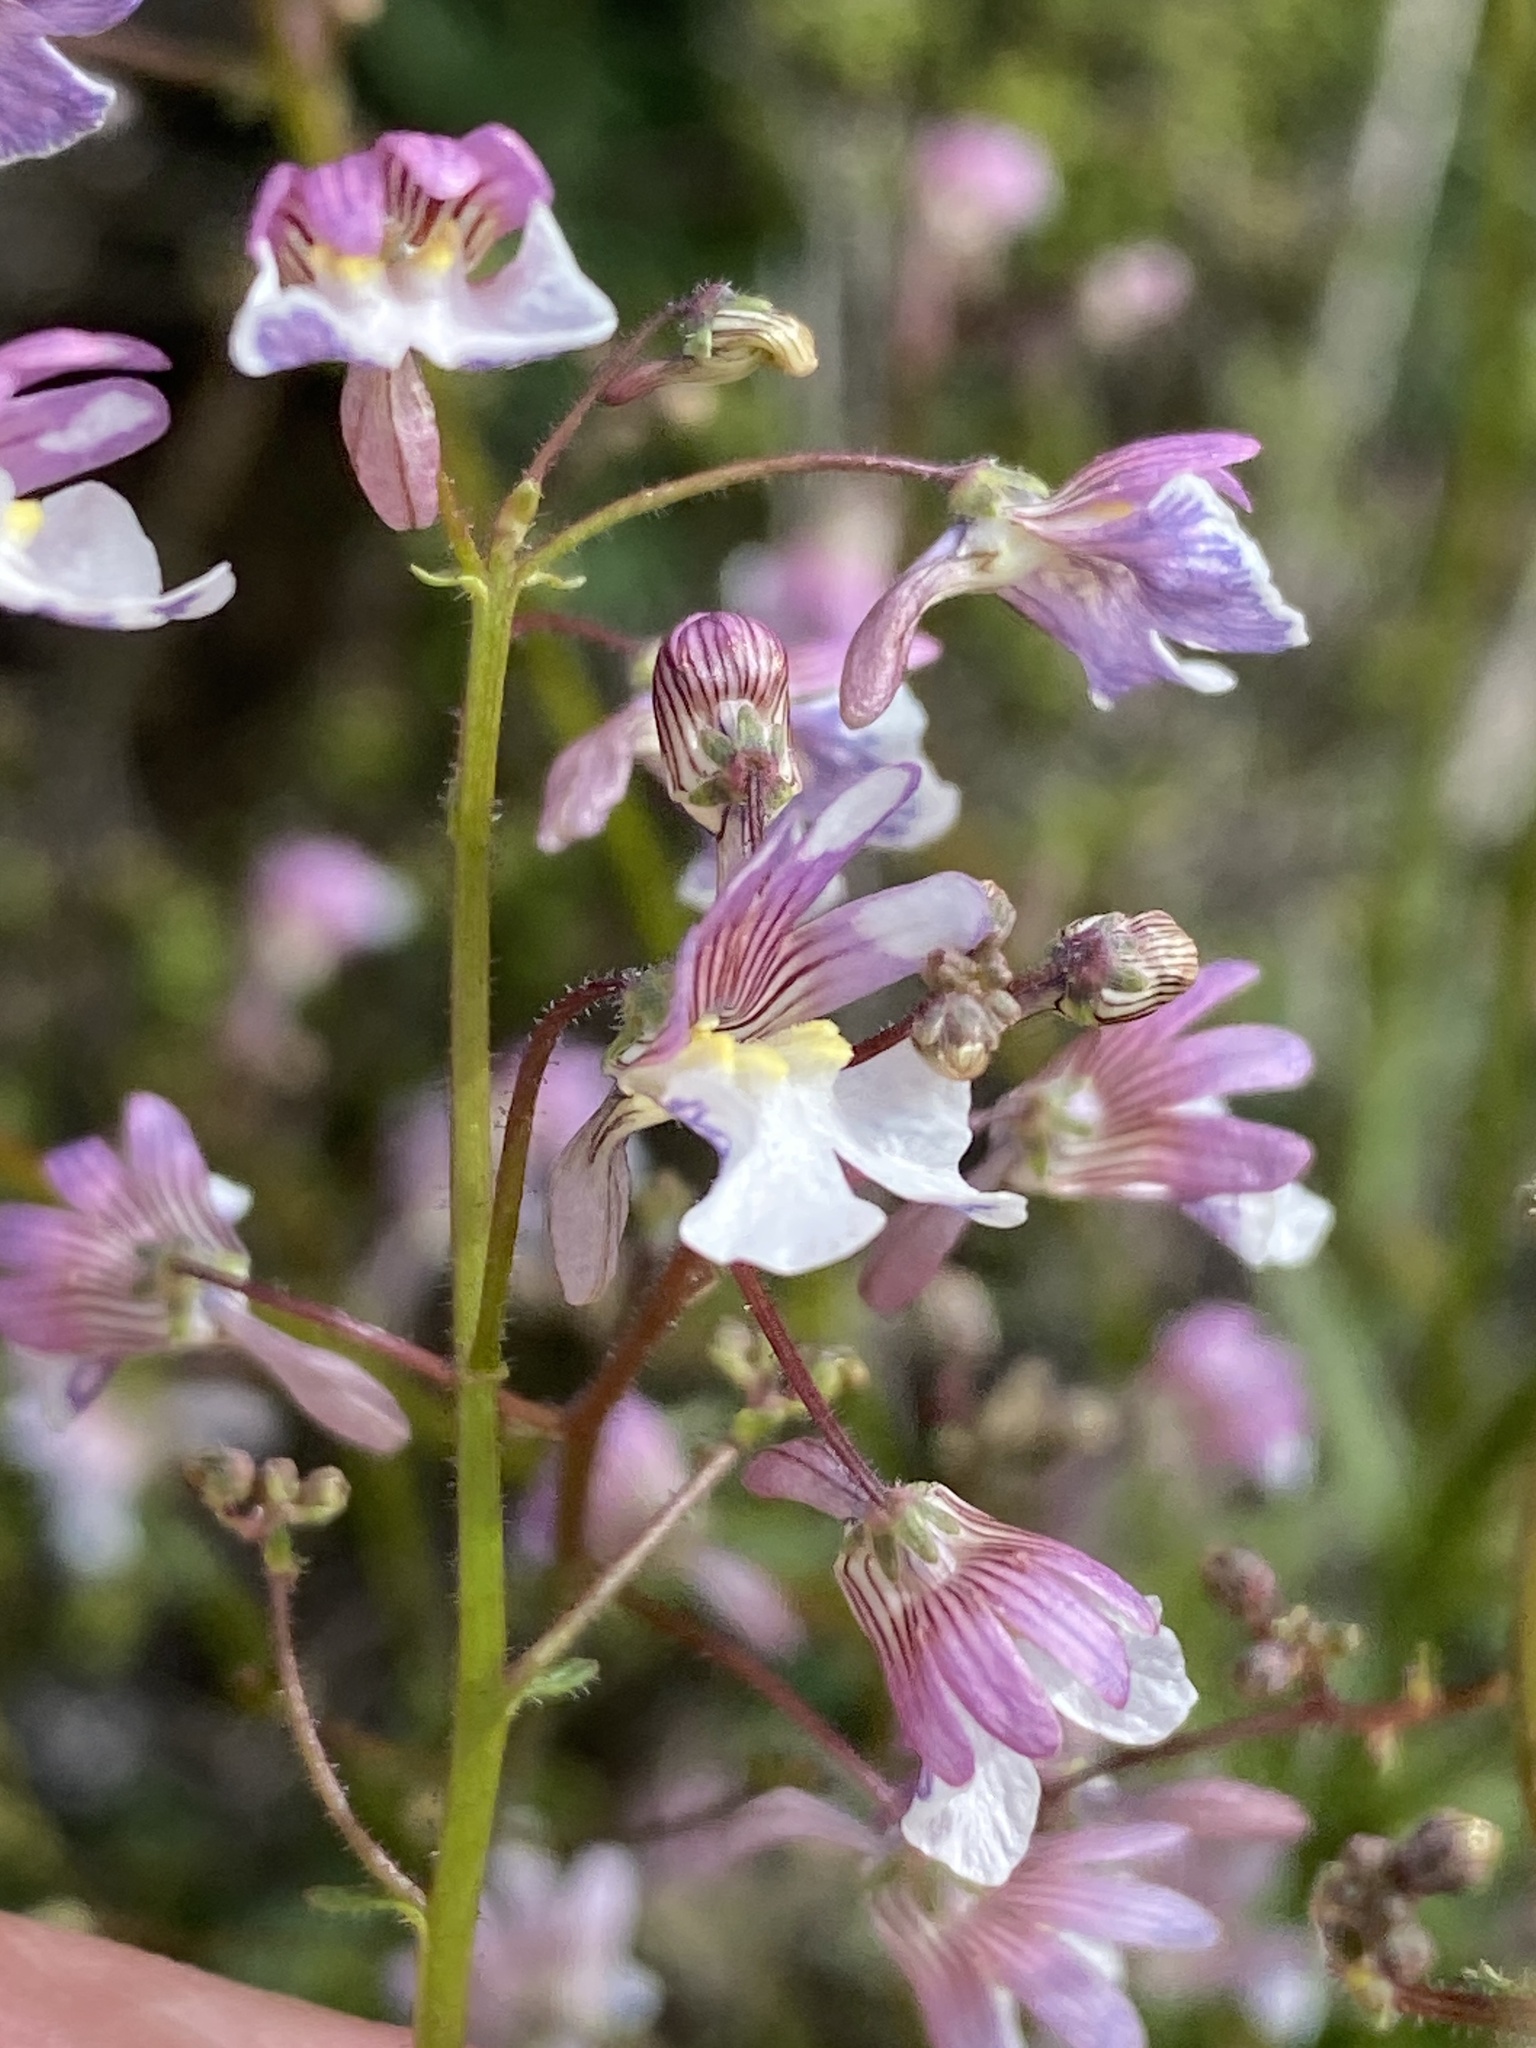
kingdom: Plantae
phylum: Tracheophyta
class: Magnoliopsida
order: Lamiales
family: Scrophulariaceae
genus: Nemesia
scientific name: Nemesia bicornis
